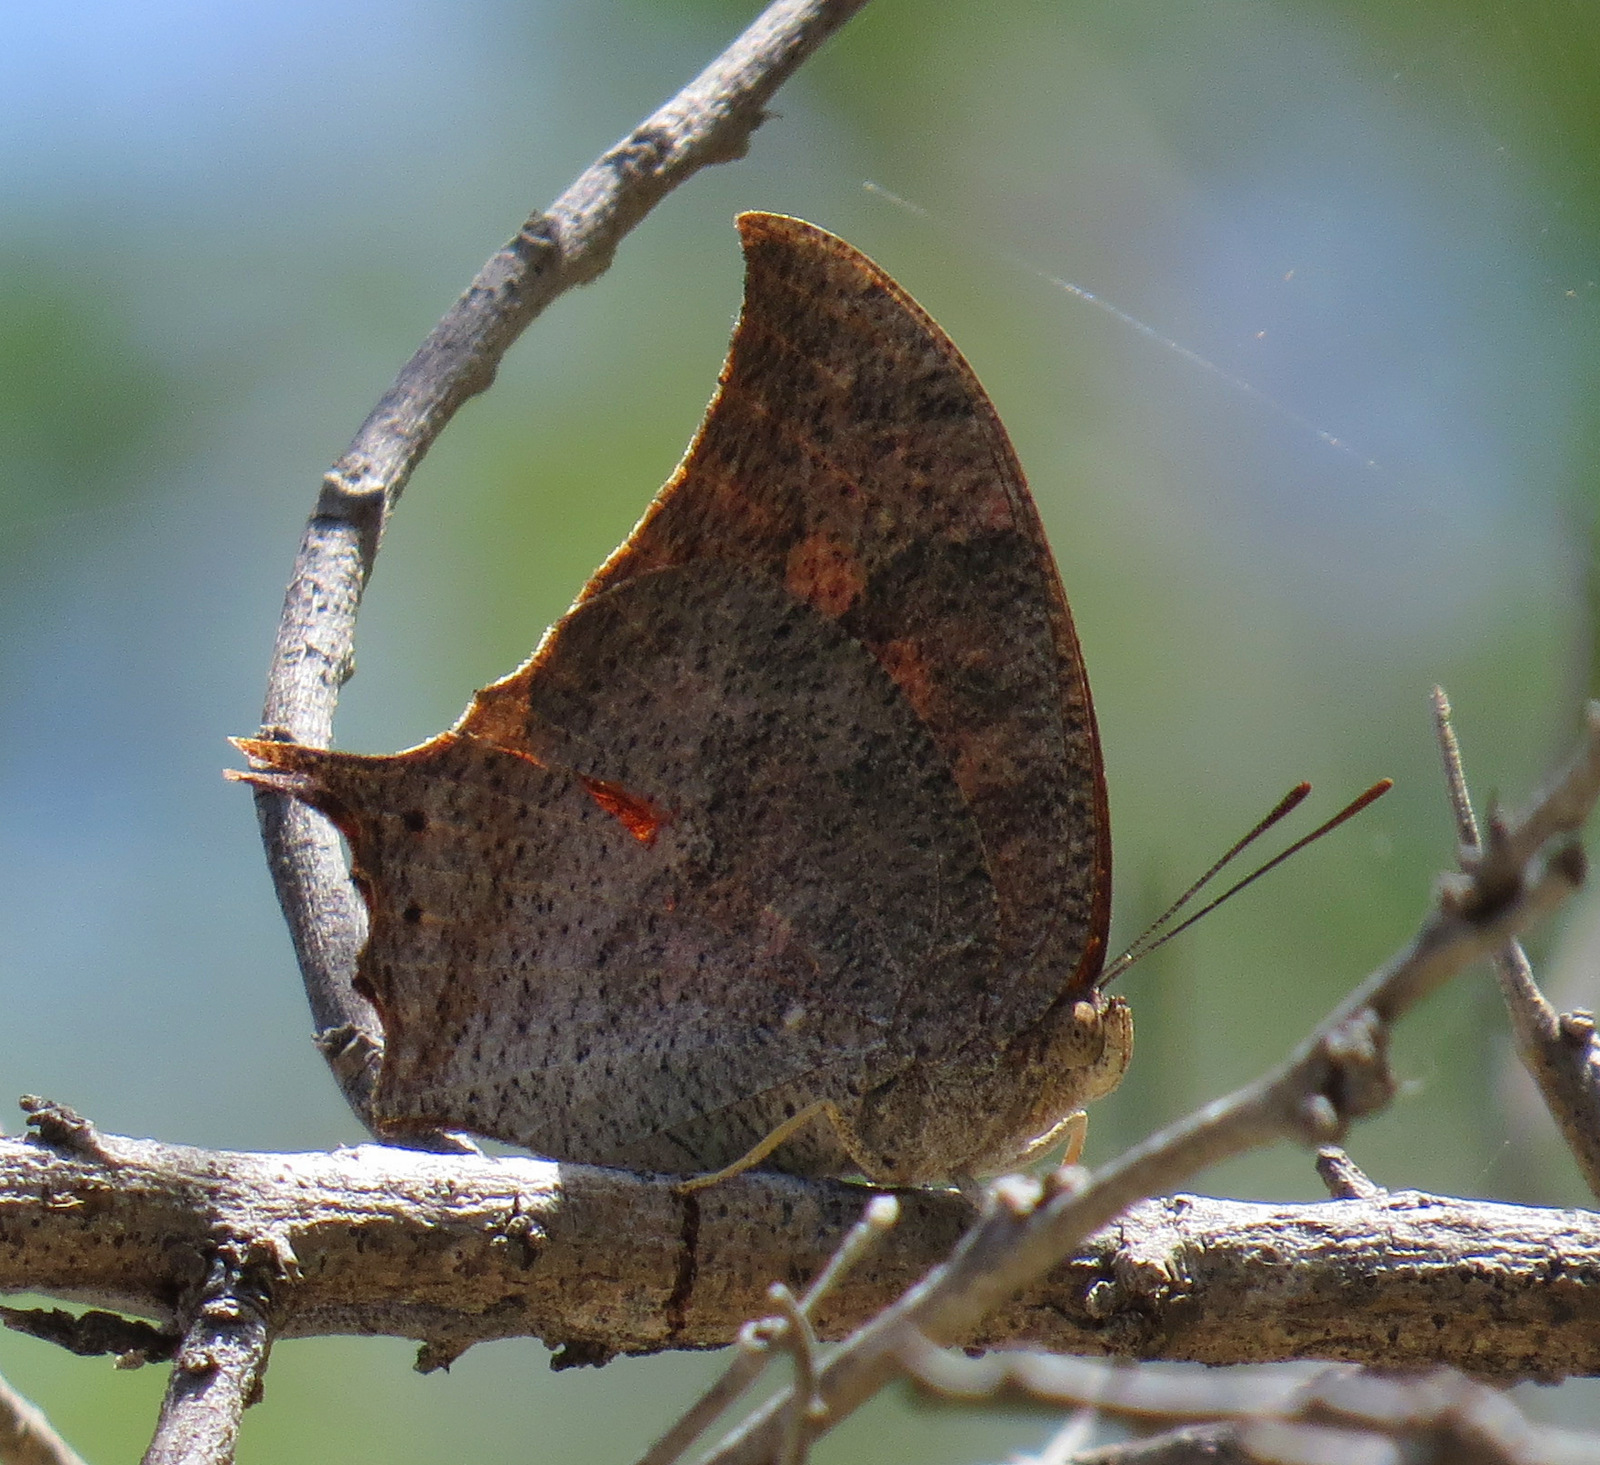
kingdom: Animalia
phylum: Arthropoda
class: Insecta
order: Lepidoptera
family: Nymphalidae
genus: Anaea
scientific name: Anaea troglodyta
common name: Florida leafwing
